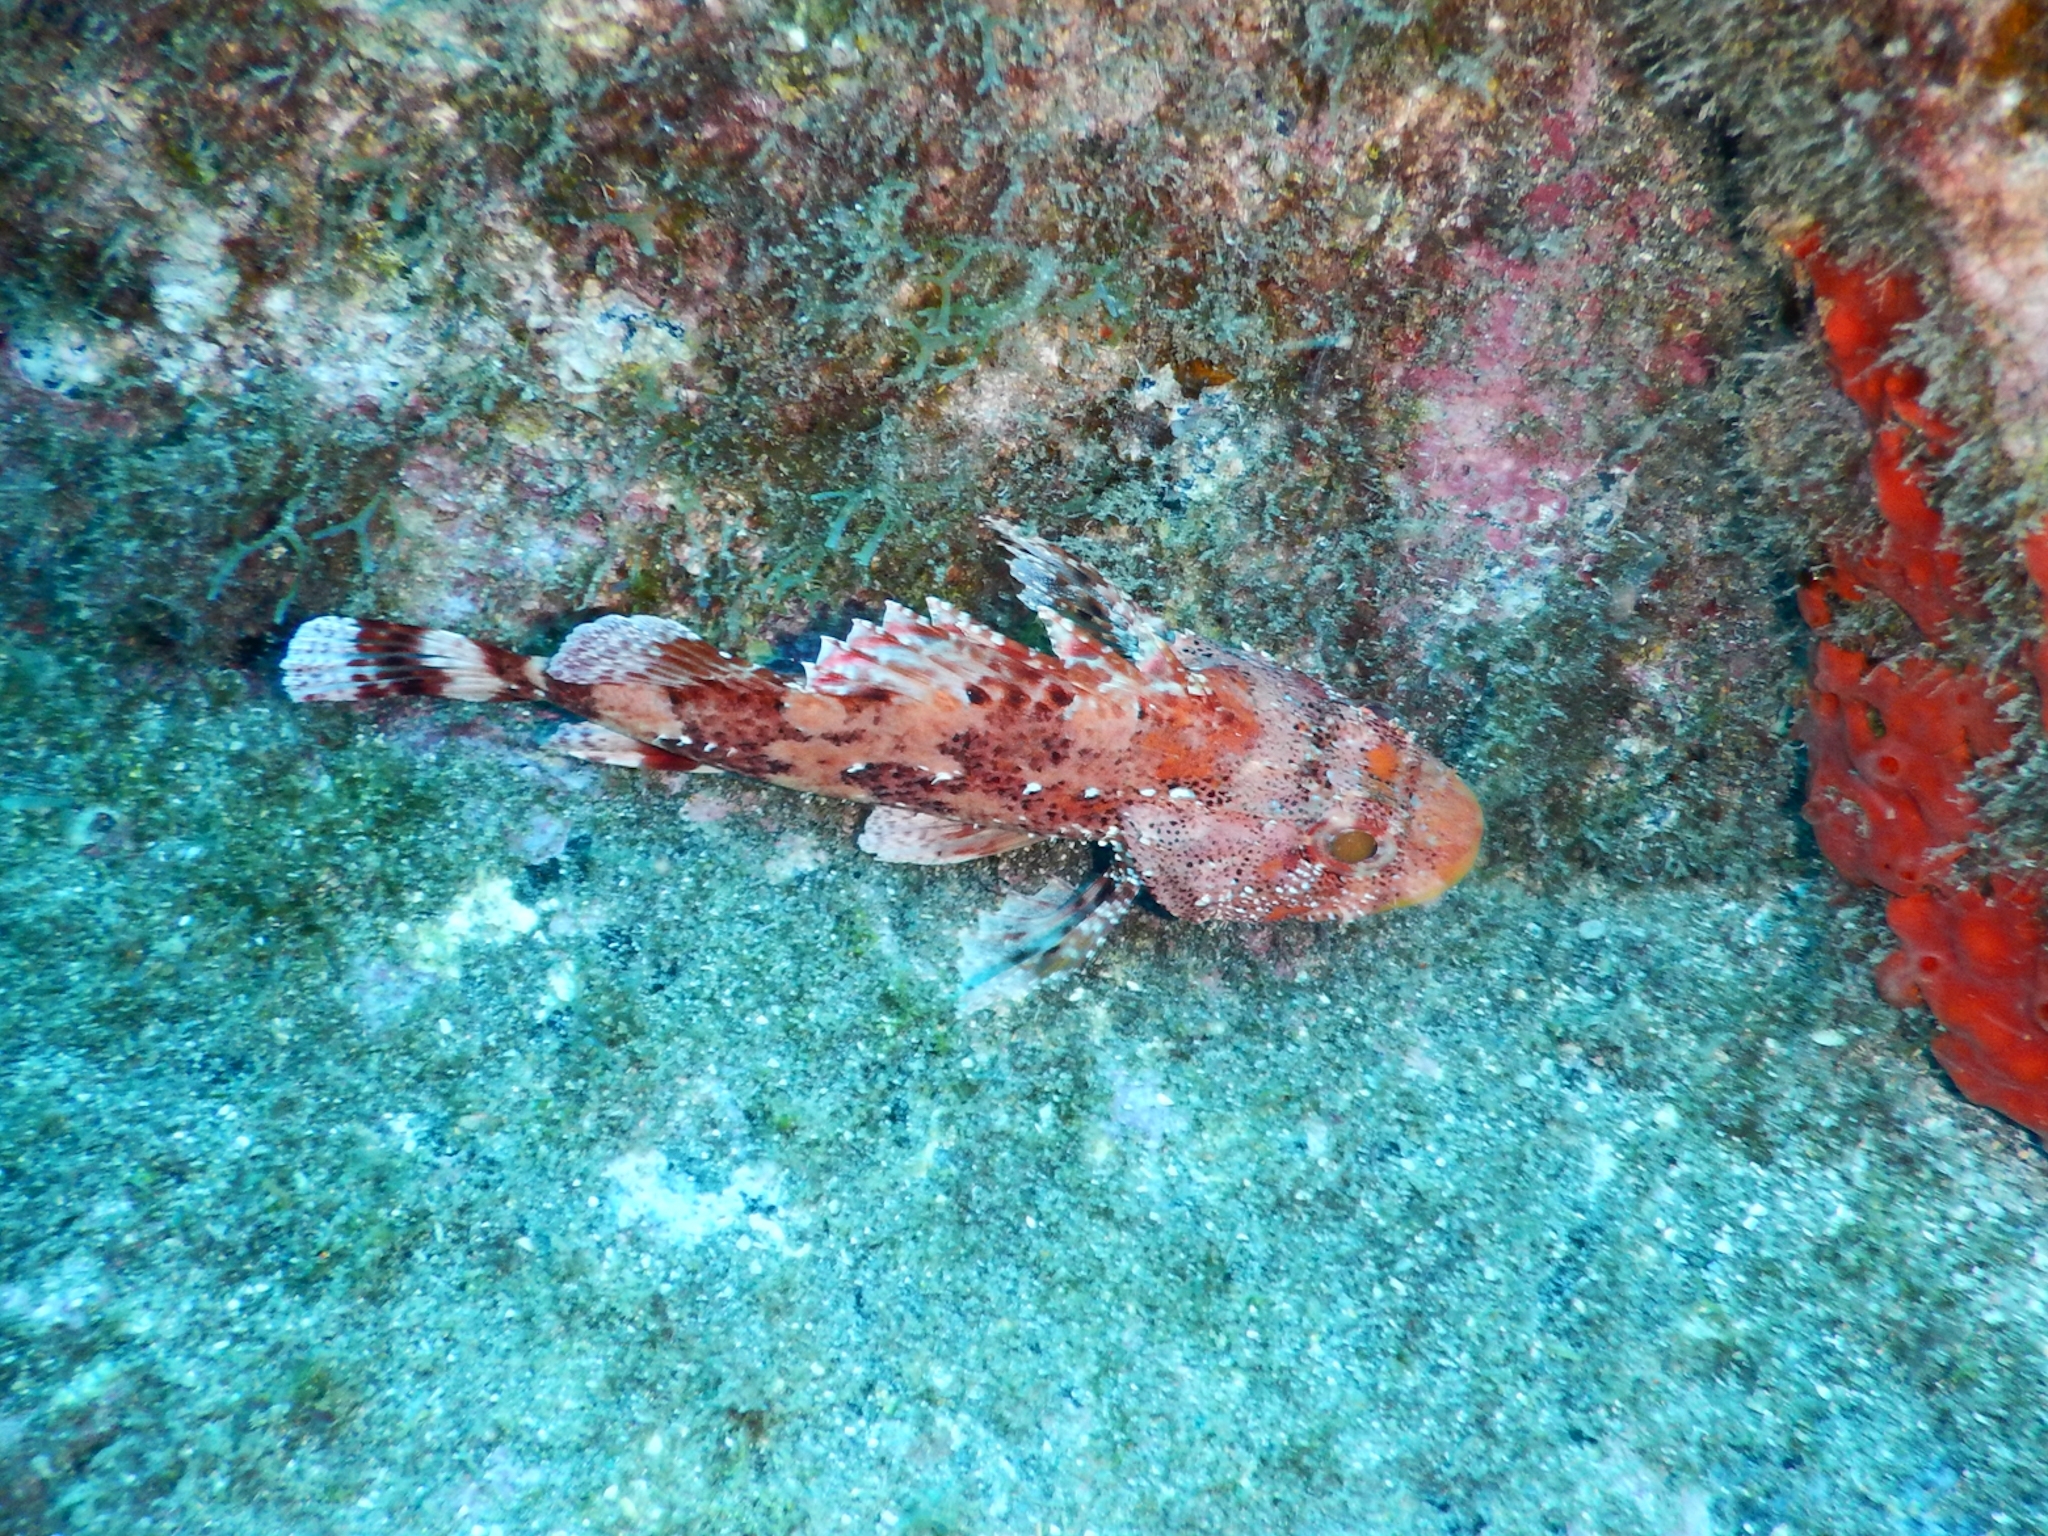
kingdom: Animalia
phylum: Chordata
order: Scorpaeniformes
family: Scorpaenidae
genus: Scorpaena
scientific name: Scorpaena maderensis
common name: Madeira rockfish
